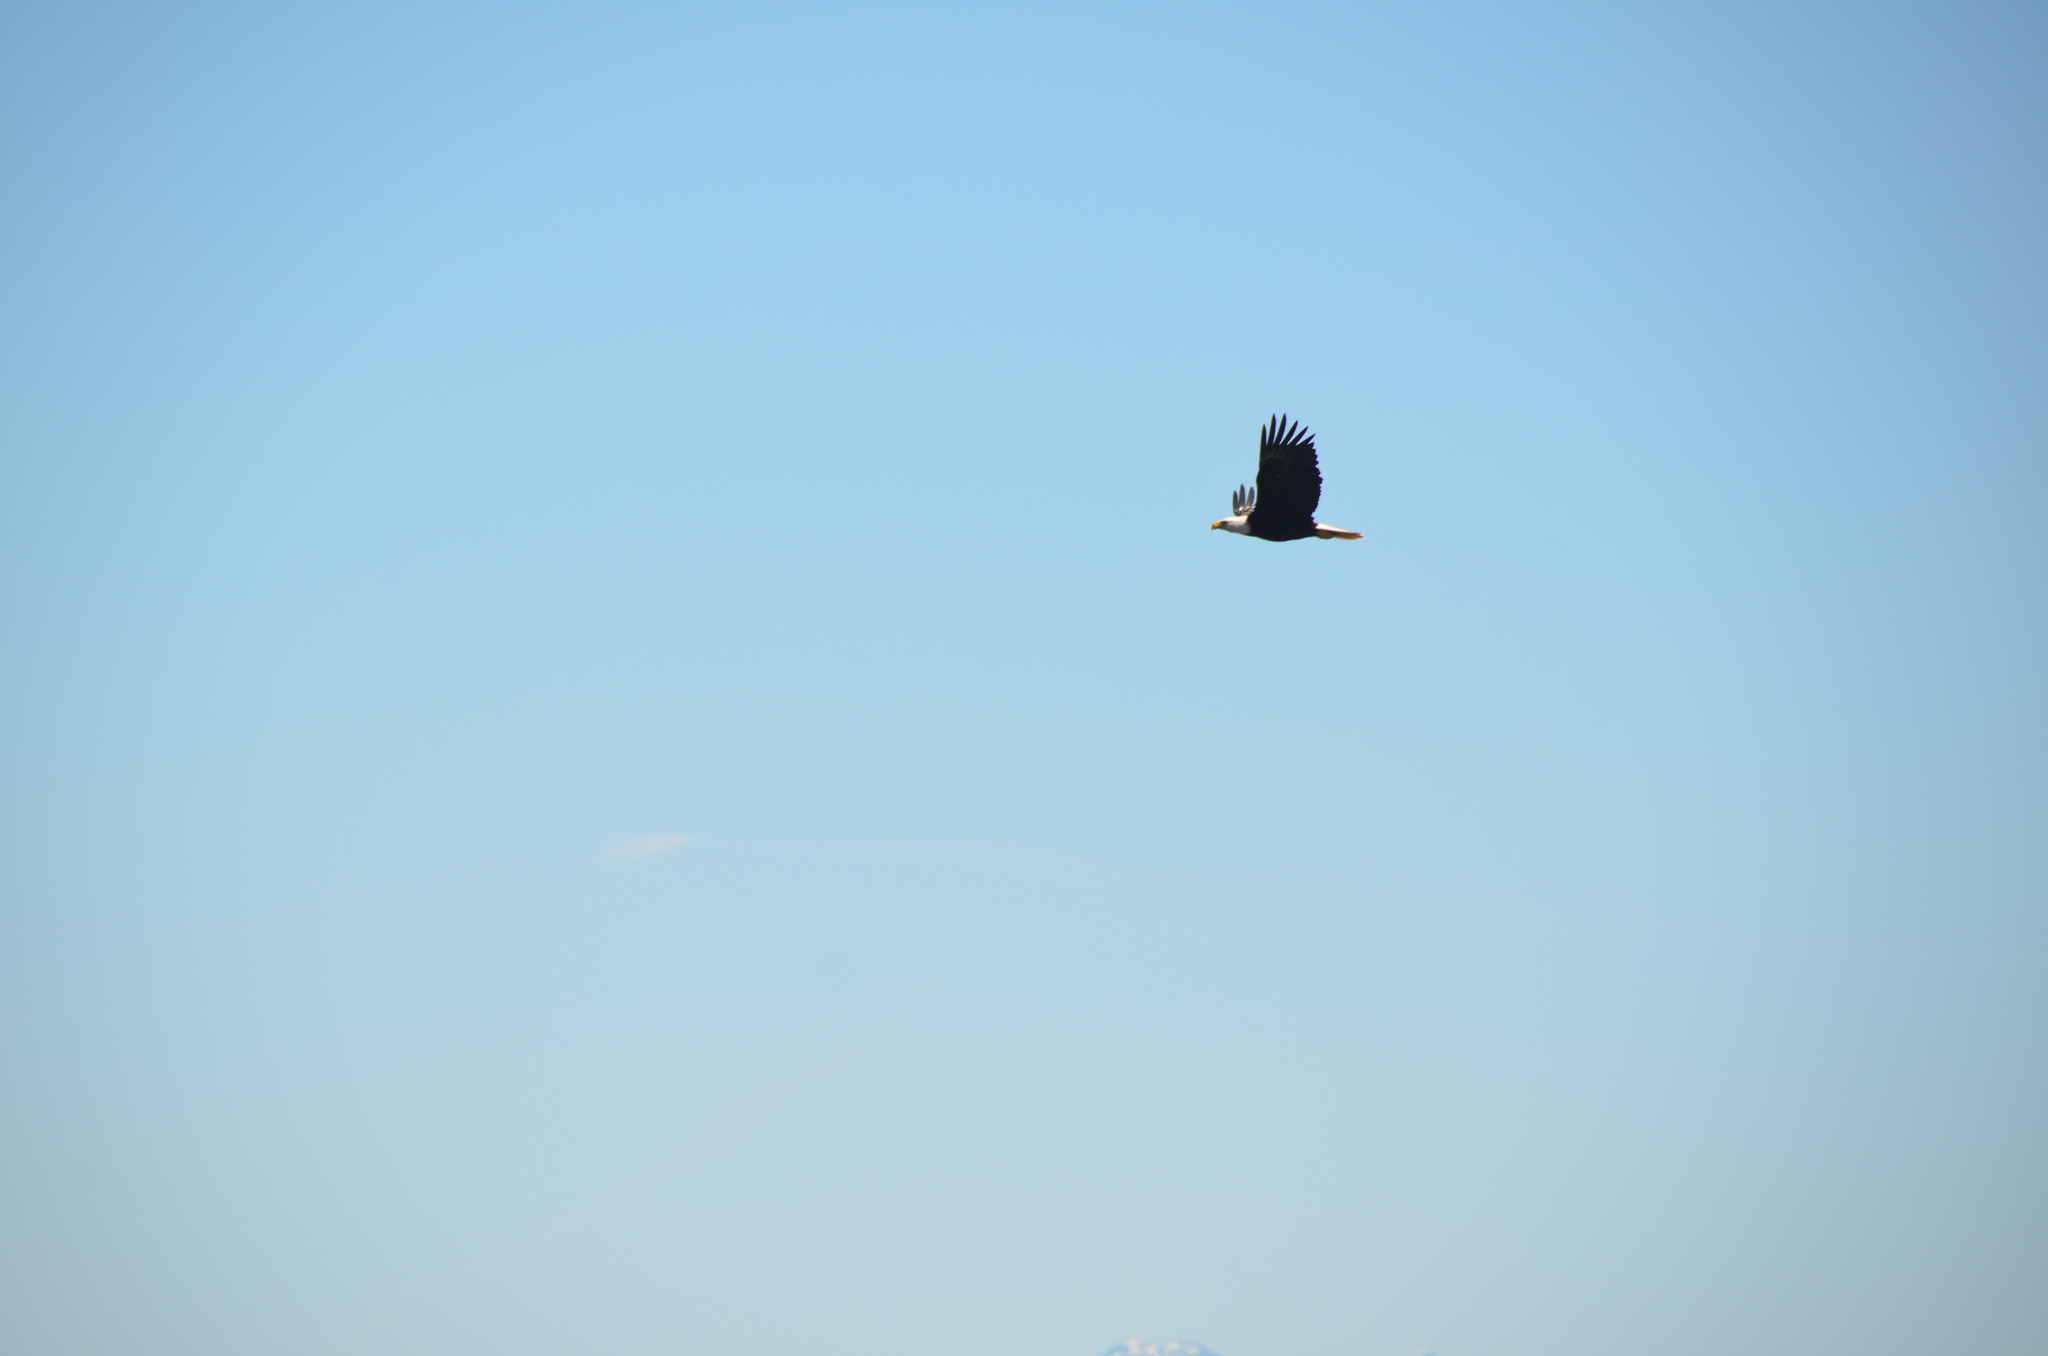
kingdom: Animalia
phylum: Chordata
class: Aves
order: Accipitriformes
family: Accipitridae
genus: Haliaeetus
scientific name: Haliaeetus leucocephalus
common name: Bald eagle
